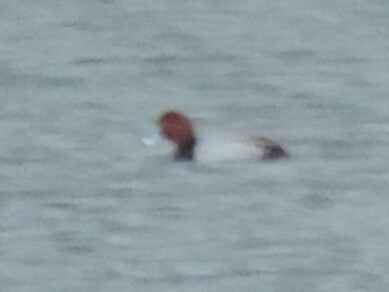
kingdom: Animalia
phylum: Chordata
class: Aves
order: Anseriformes
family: Anatidae
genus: Aythya
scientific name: Aythya americana
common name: Redhead
